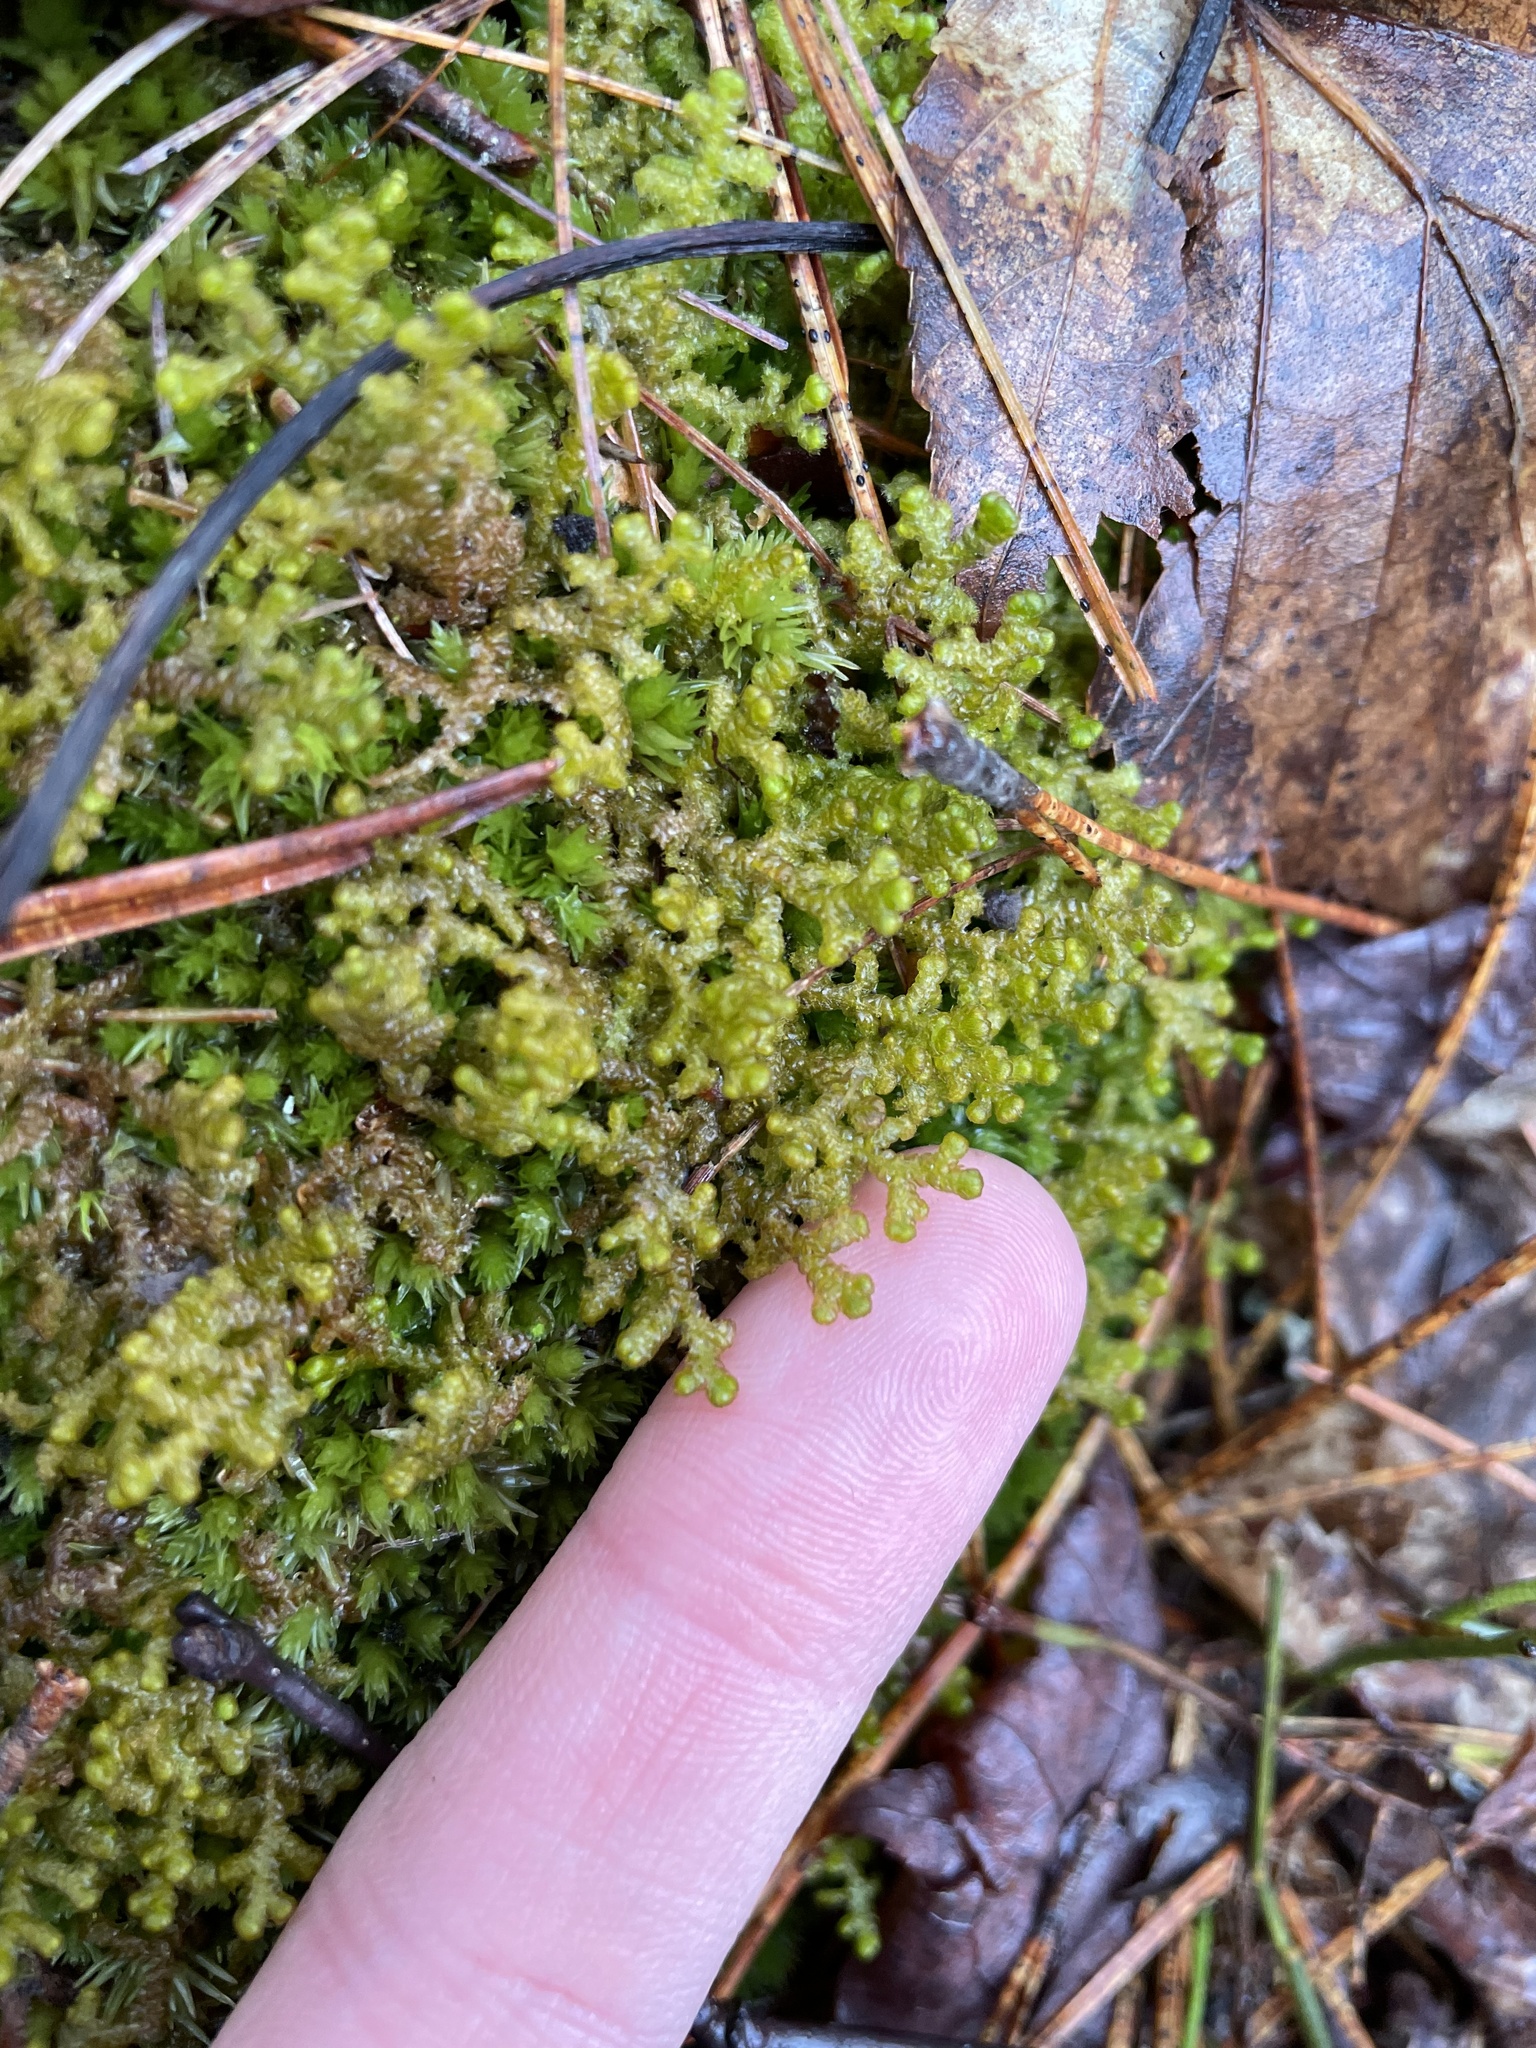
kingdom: Plantae
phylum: Marchantiophyta
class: Jungermanniopsida
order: Ptilidiales
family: Ptilidiaceae
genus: Ptilidium
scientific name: Ptilidium ciliare
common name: Ciliate fringewort
